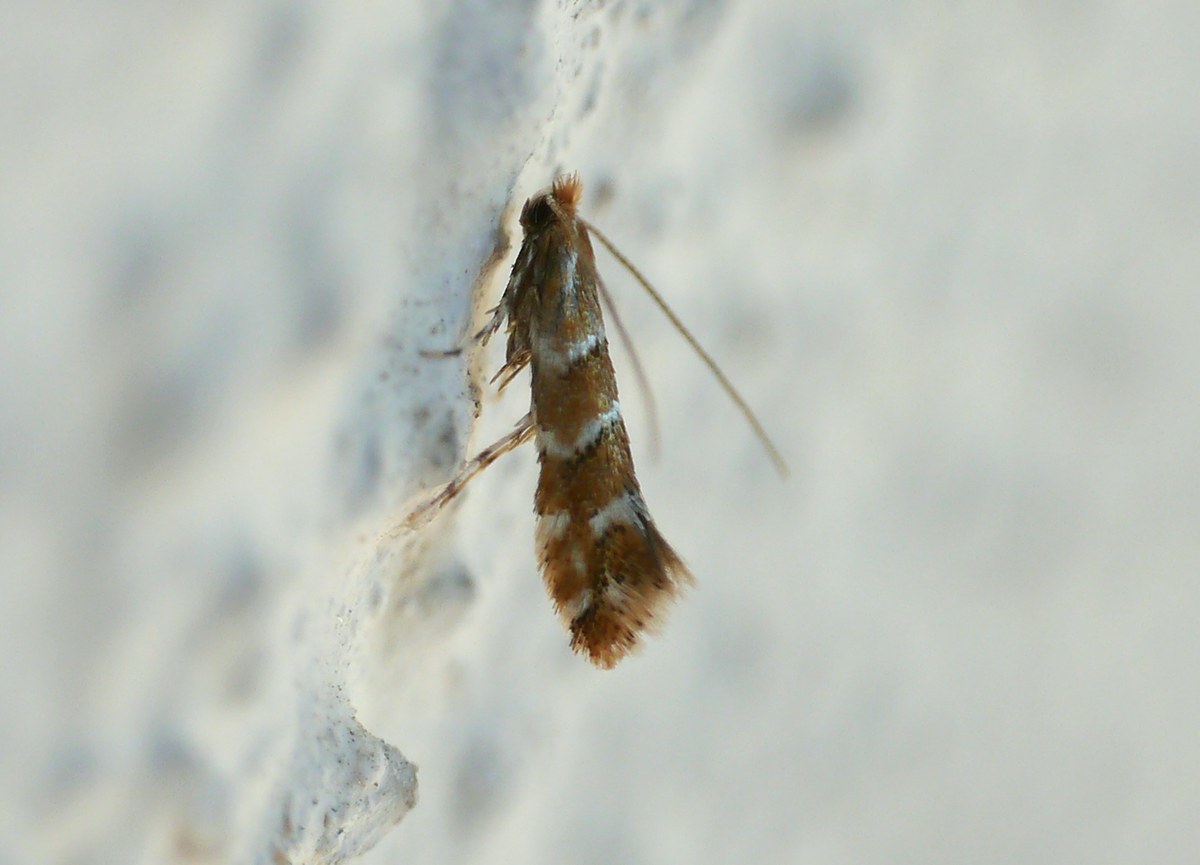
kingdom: Animalia
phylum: Arthropoda
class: Insecta
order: Lepidoptera
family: Gracillariidae
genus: Cameraria
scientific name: Cameraria ohridella
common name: Horse-chestnut leaf-miner
